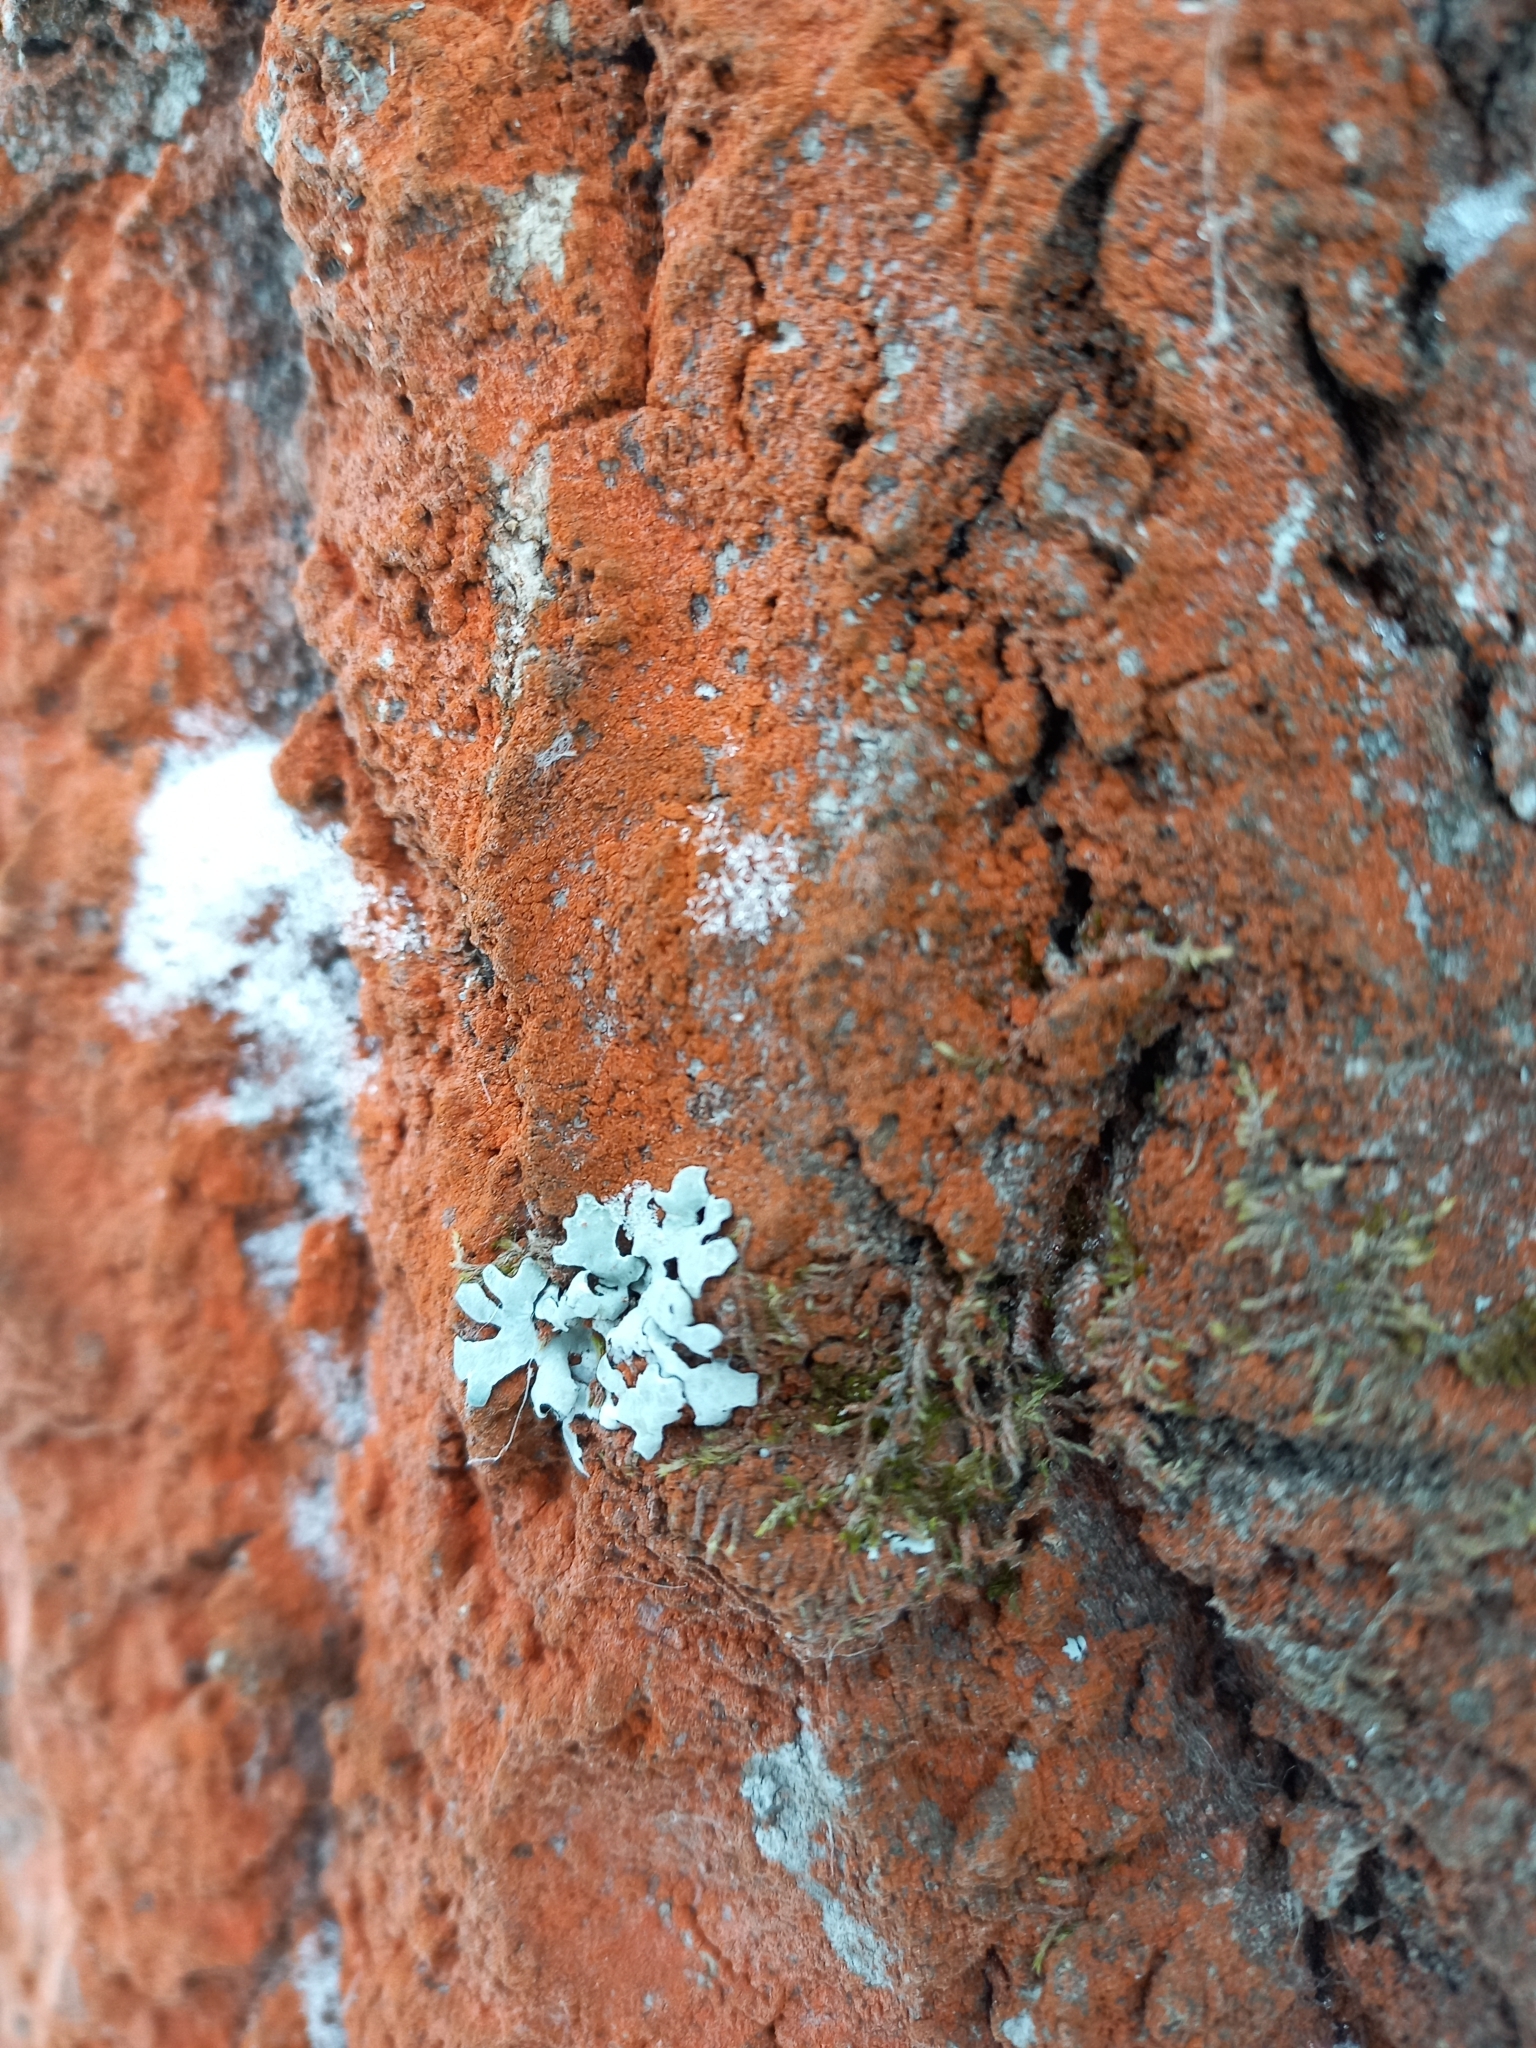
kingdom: Plantae
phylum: Chlorophyta
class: Ulvophyceae
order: Trentepohliales
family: Trentepohliaceae
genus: Trentepohlia
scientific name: Trentepohlia
